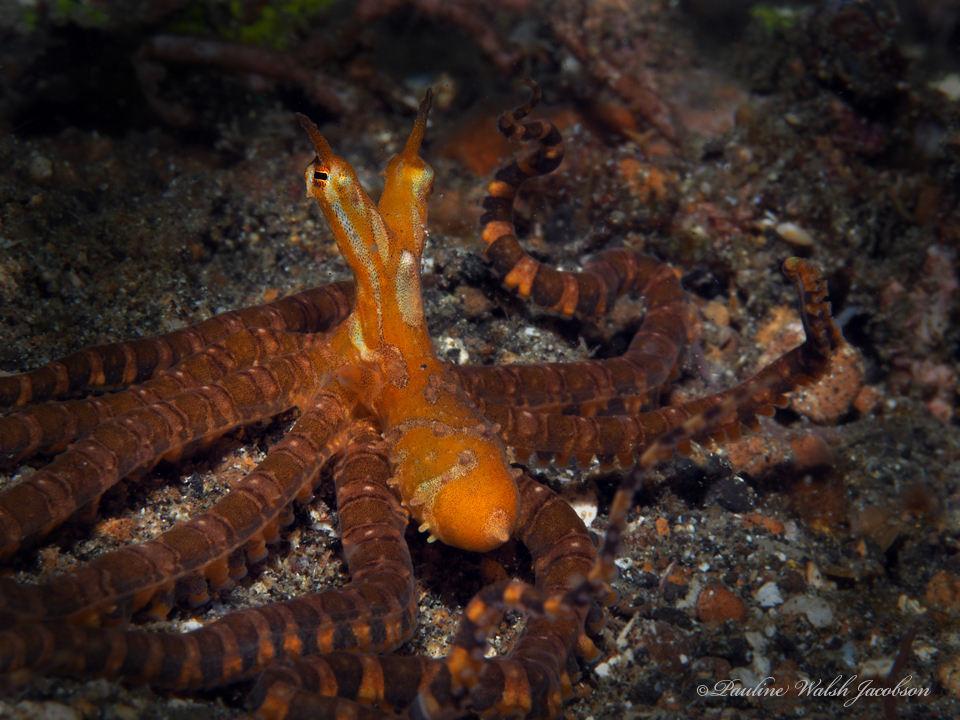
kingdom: Animalia
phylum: Mollusca
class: Cephalopoda
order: Octopoda
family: Octopodidae
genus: Wunderpus
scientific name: Wunderpus photogenicus
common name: Wunderpus
